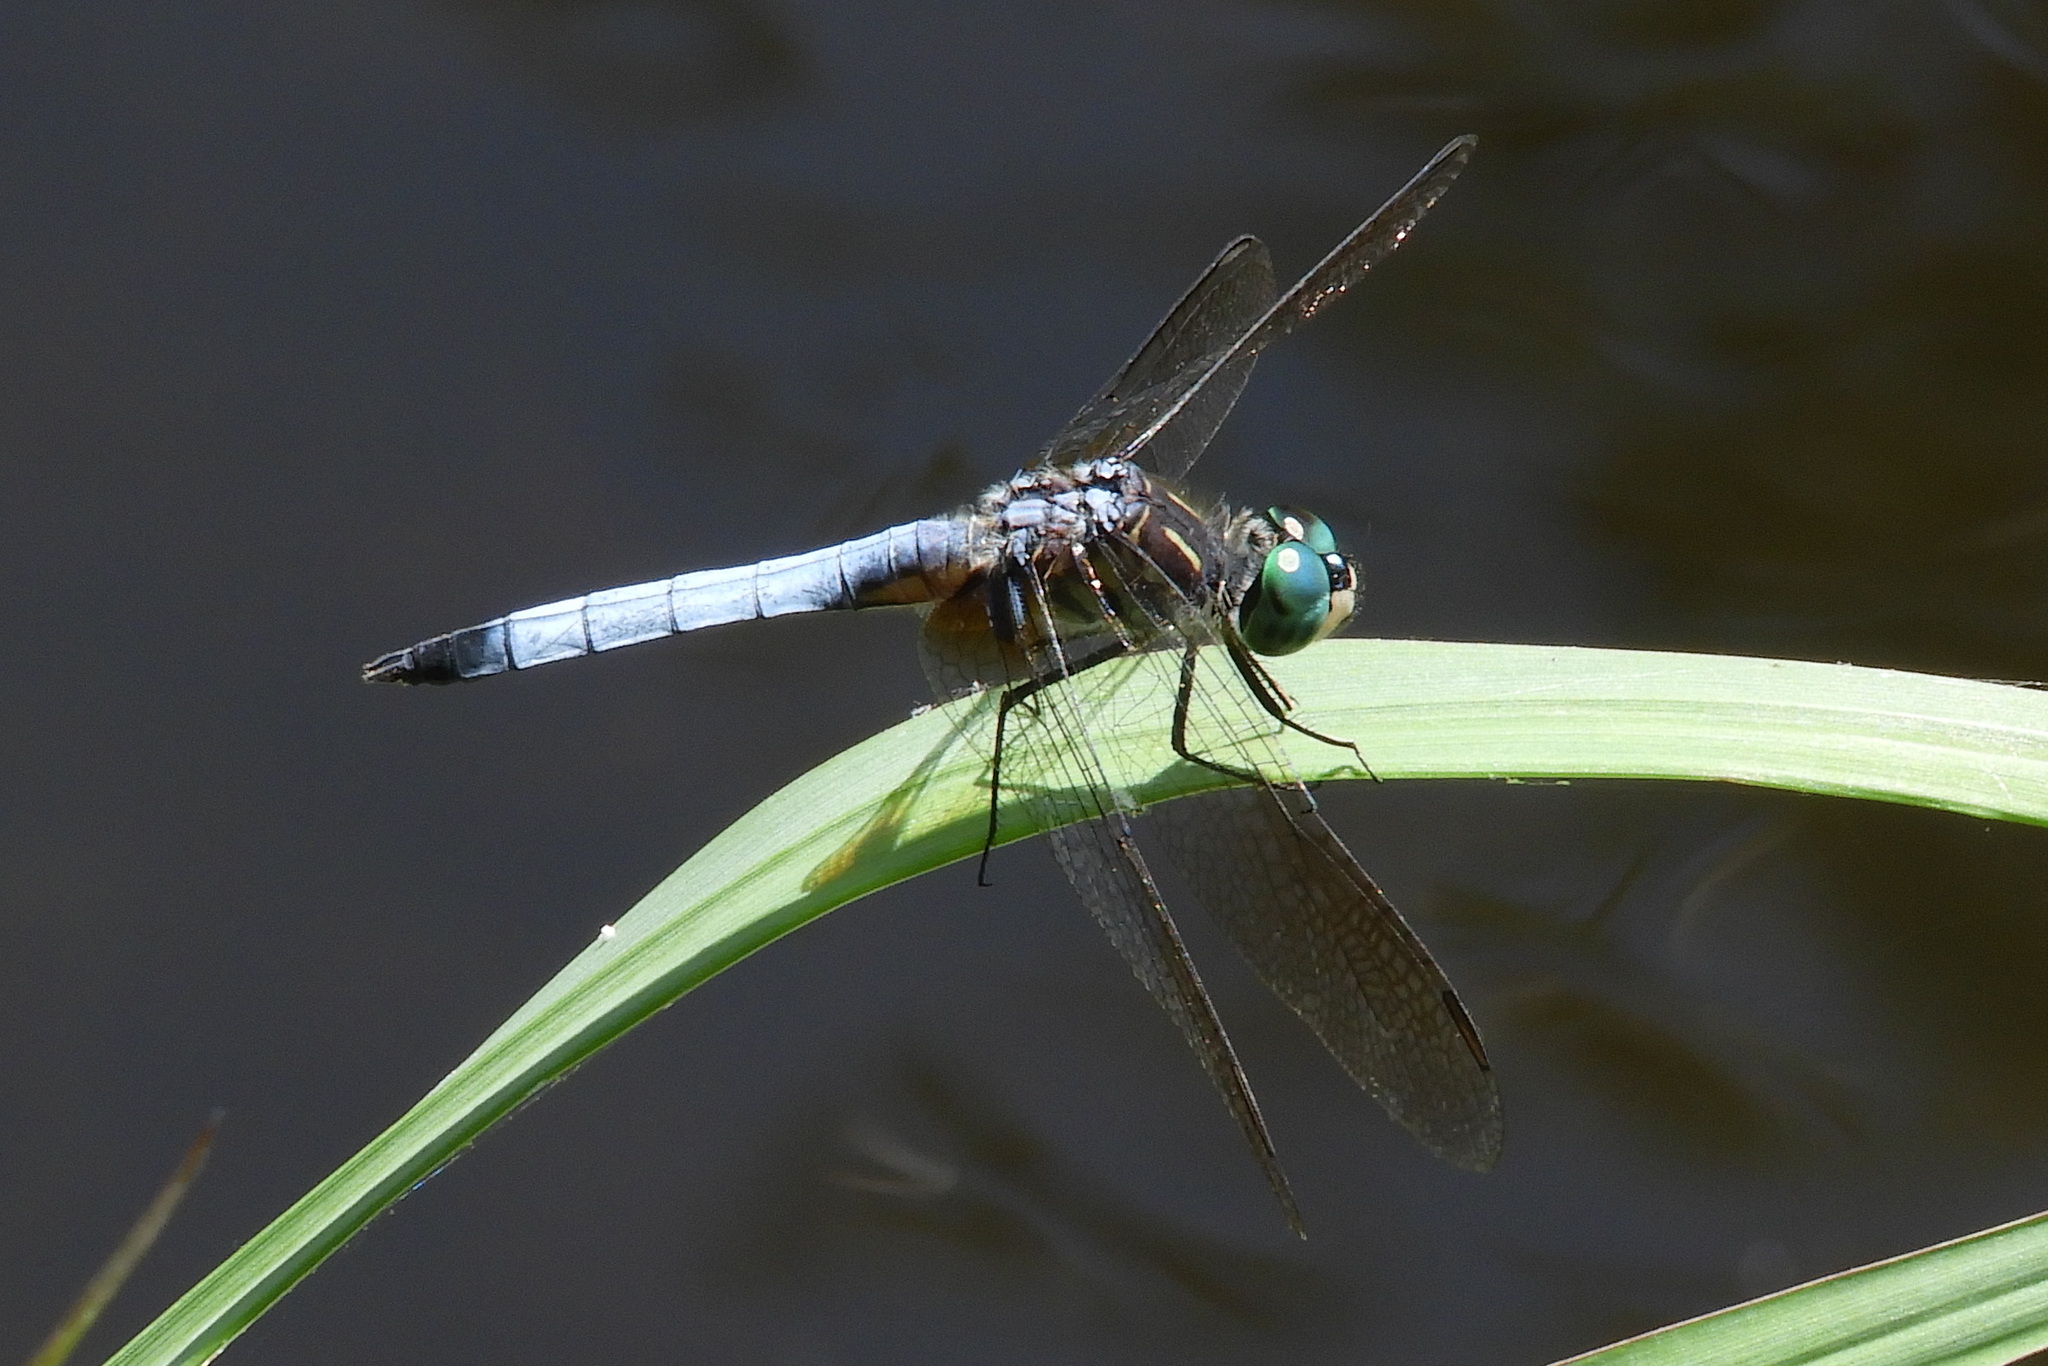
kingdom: Animalia
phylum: Arthropoda
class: Insecta
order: Odonata
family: Libellulidae
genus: Pachydiplax
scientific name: Pachydiplax longipennis
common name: Blue dasher
